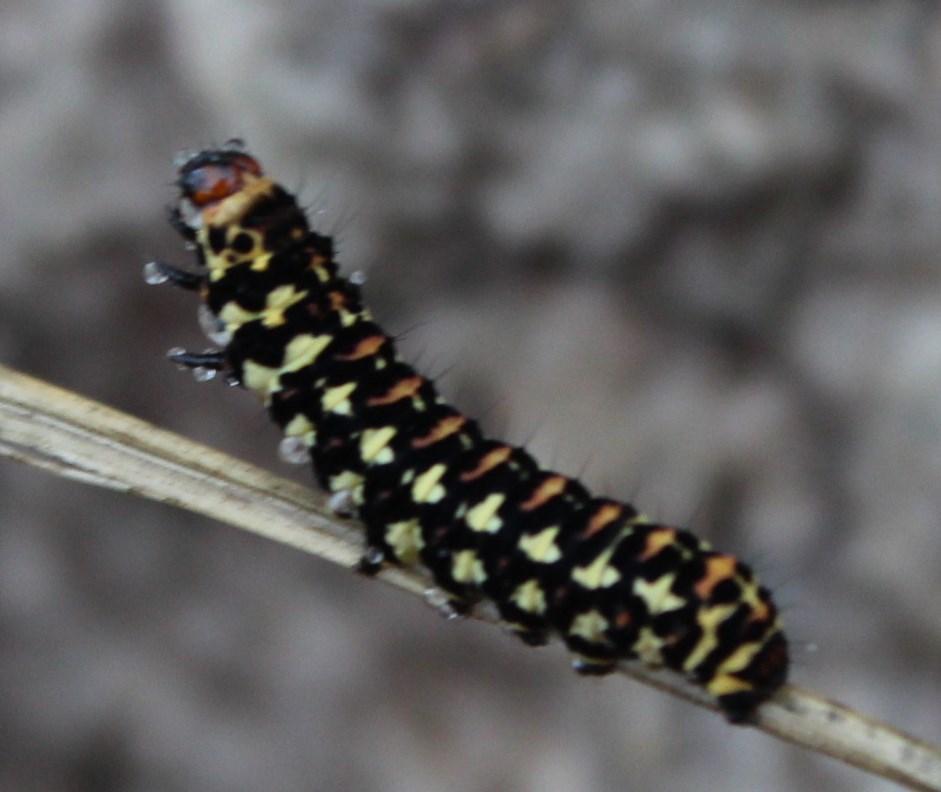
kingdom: Animalia
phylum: Arthropoda
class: Insecta
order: Lepidoptera
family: Noctuidae
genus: Diaphone
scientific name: Diaphone eumela
